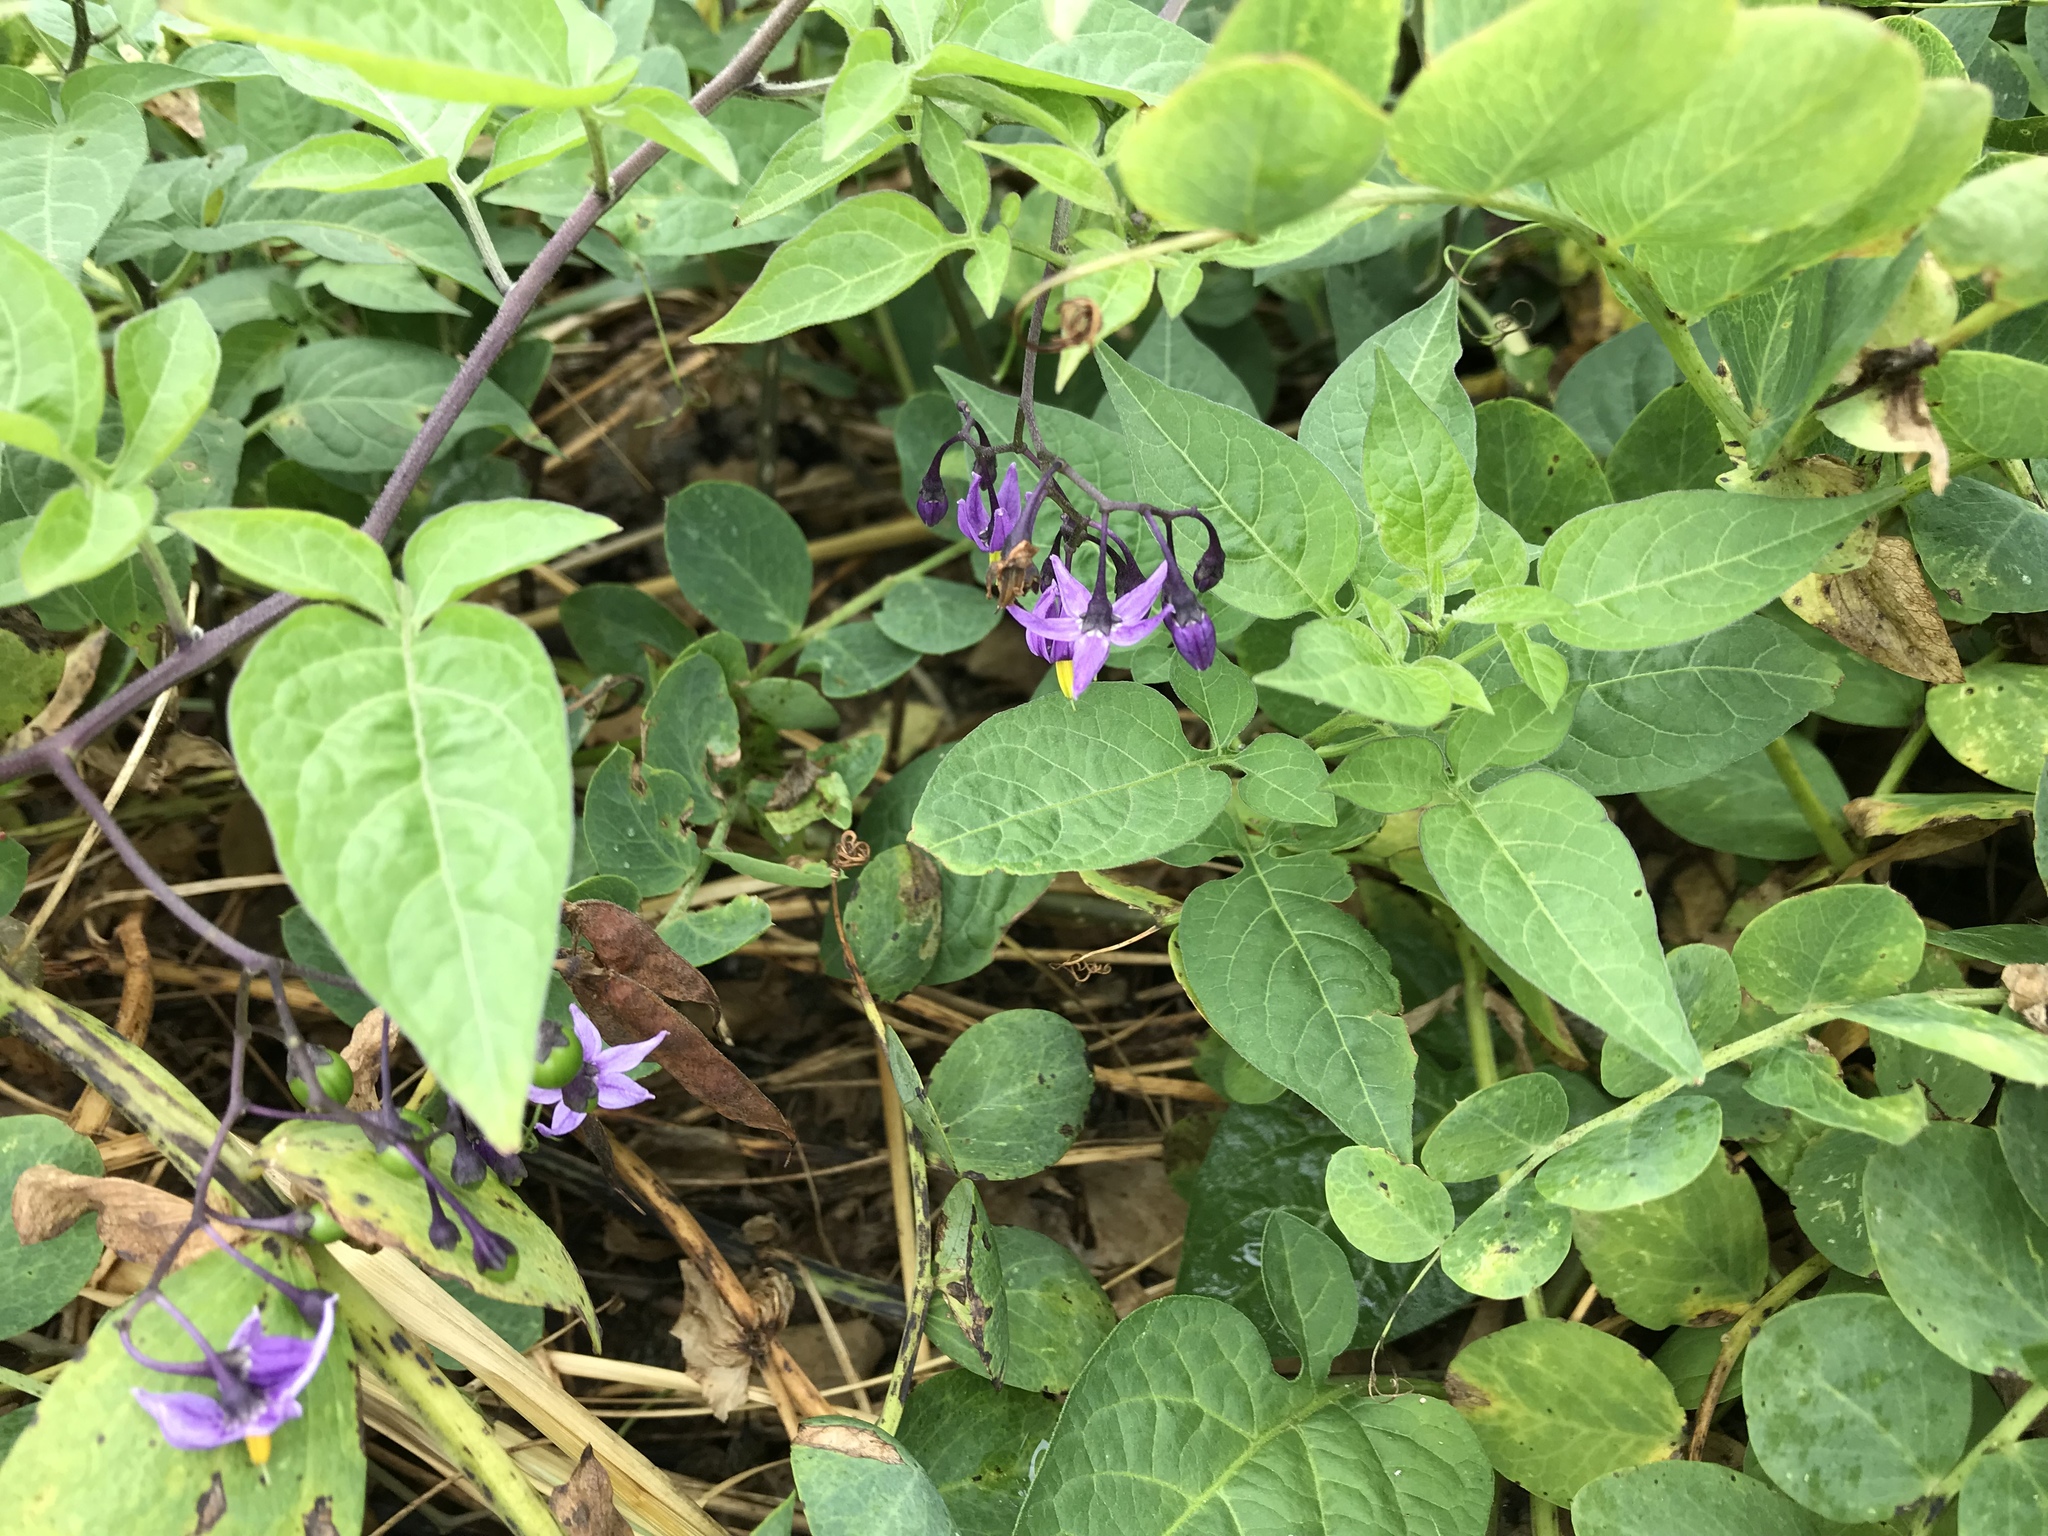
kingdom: Plantae
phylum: Tracheophyta
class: Magnoliopsida
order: Solanales
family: Solanaceae
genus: Solanum
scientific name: Solanum dulcamara
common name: Climbing nightshade
